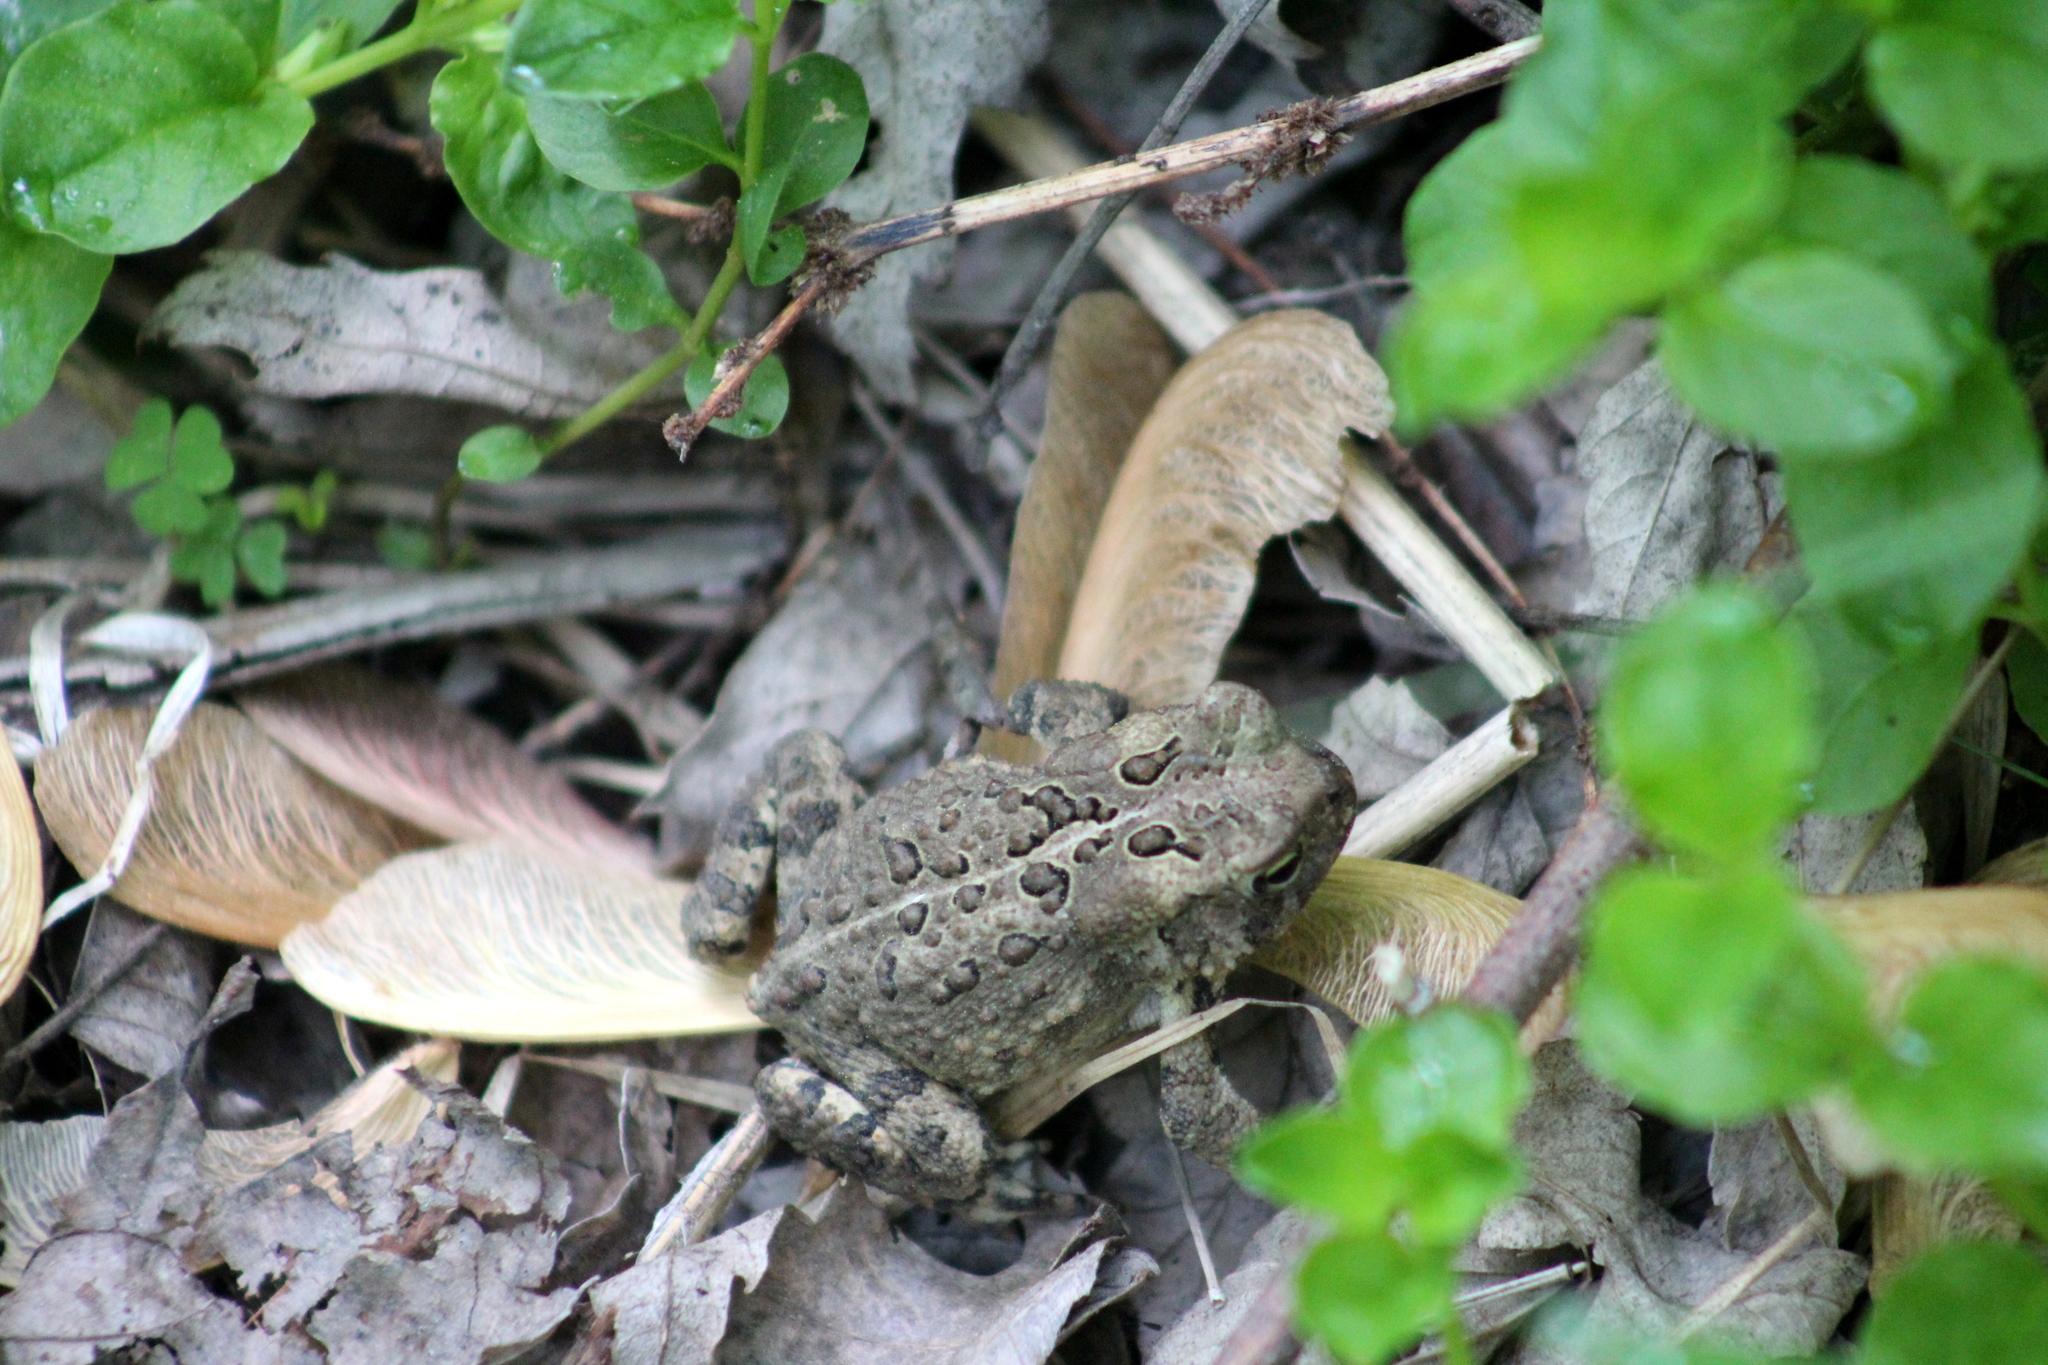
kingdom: Animalia
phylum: Chordata
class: Amphibia
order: Anura
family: Bufonidae
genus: Anaxyrus
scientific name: Anaxyrus americanus
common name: American toad
